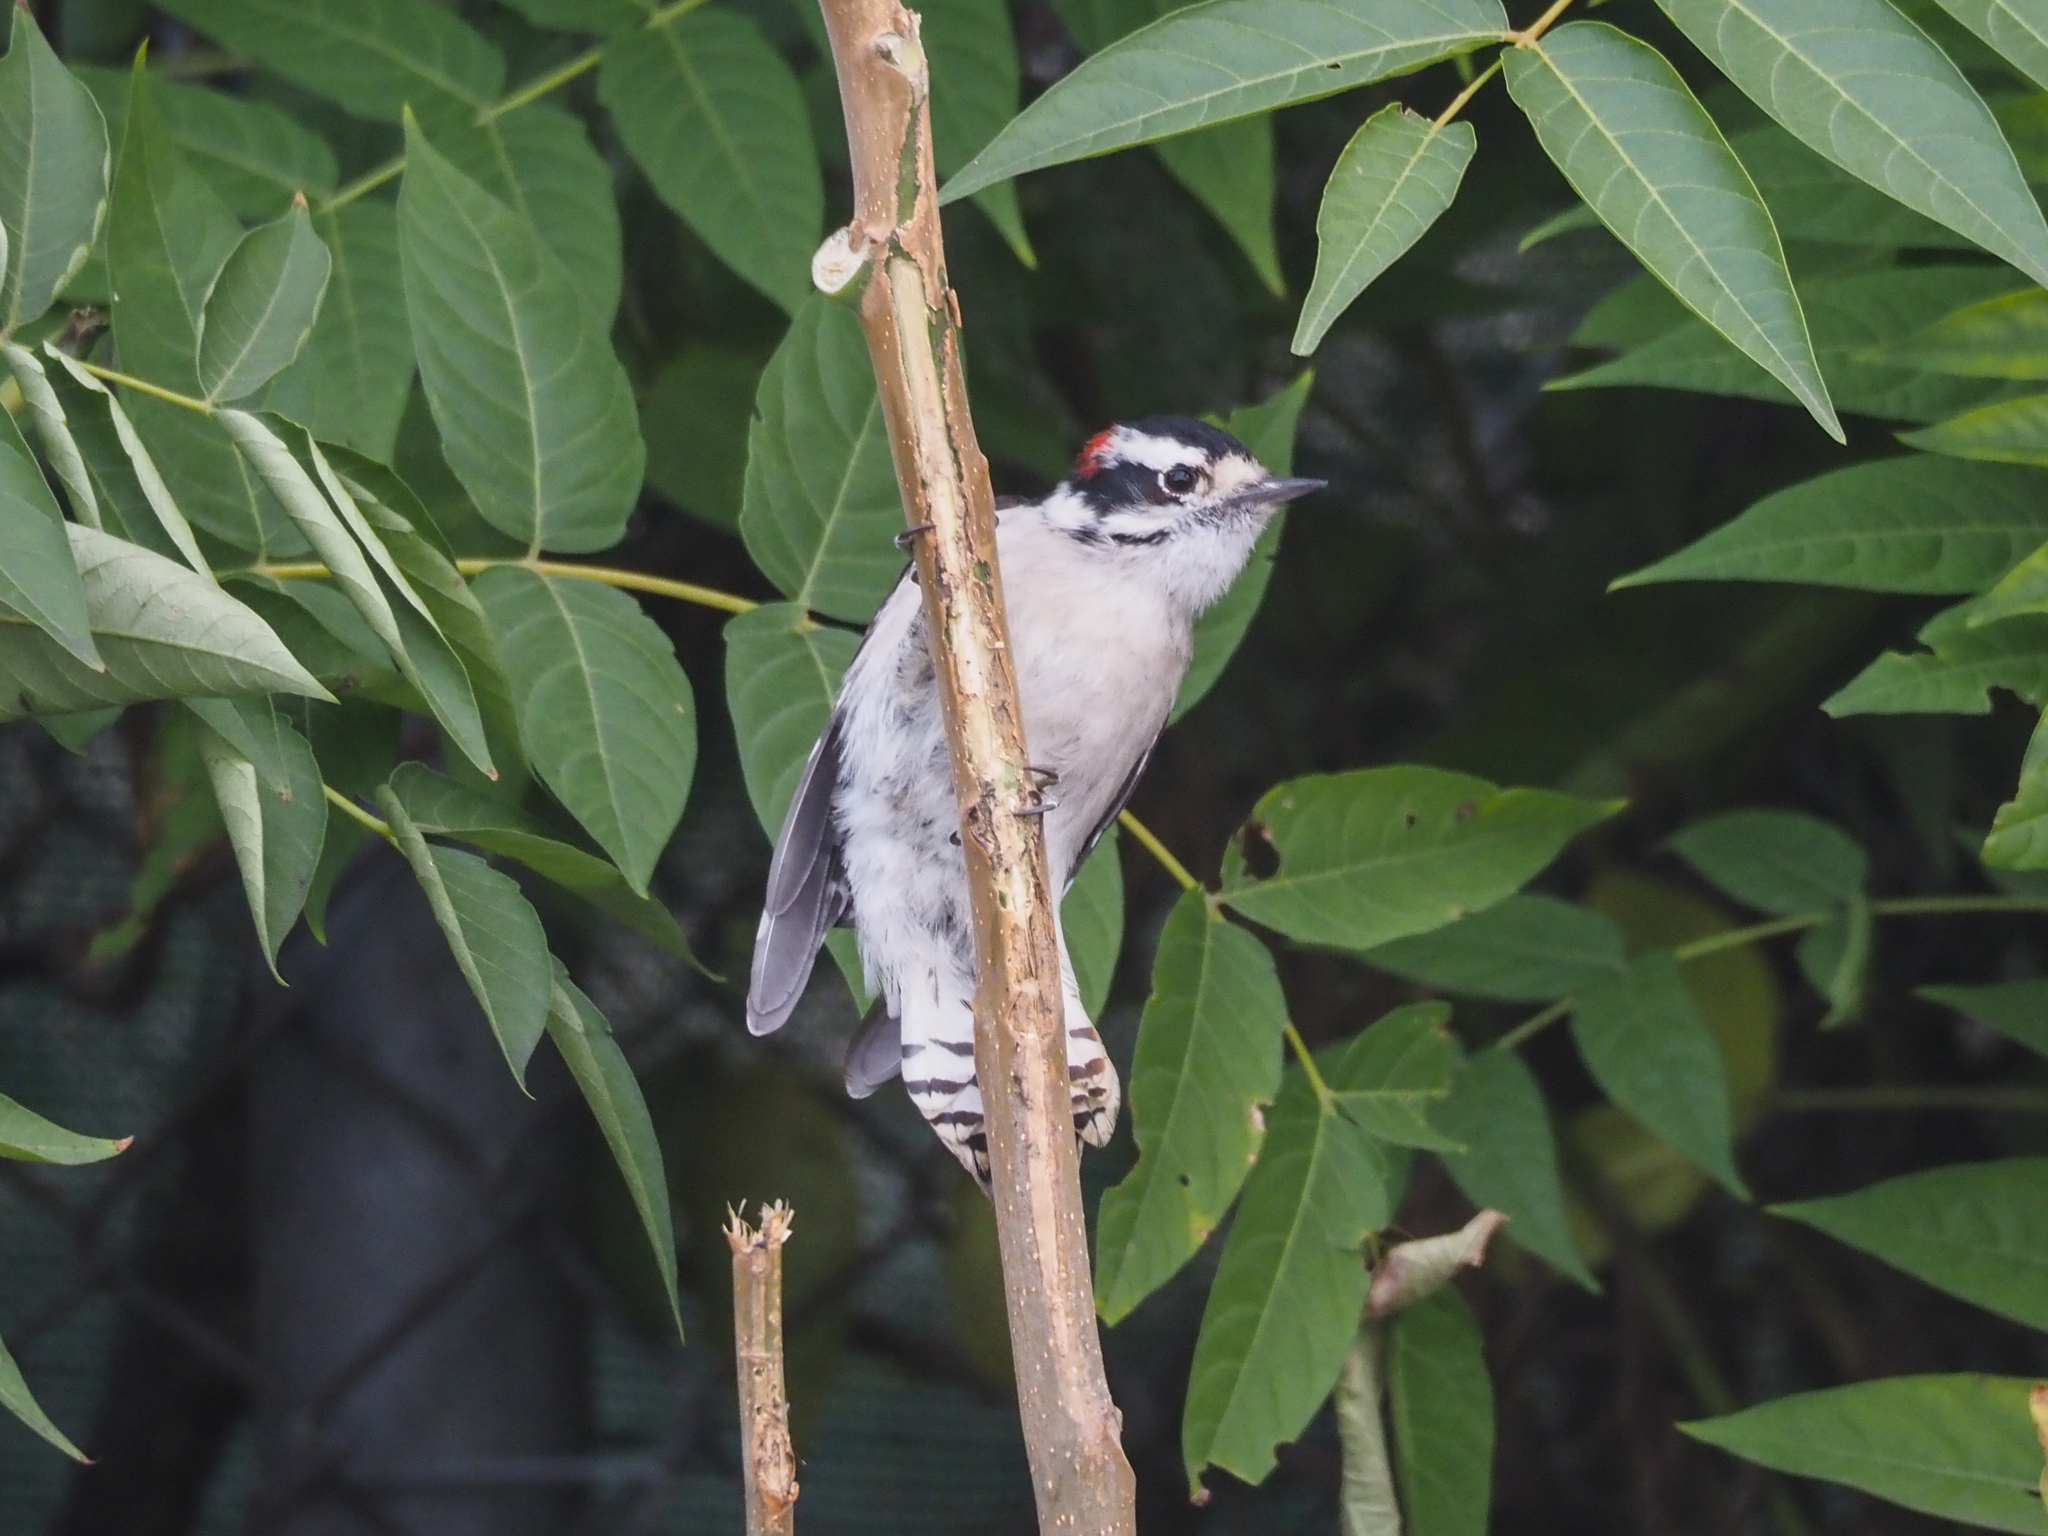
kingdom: Animalia
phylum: Chordata
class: Aves
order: Piciformes
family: Picidae
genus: Dryobates
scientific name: Dryobates pubescens
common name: Downy woodpecker
